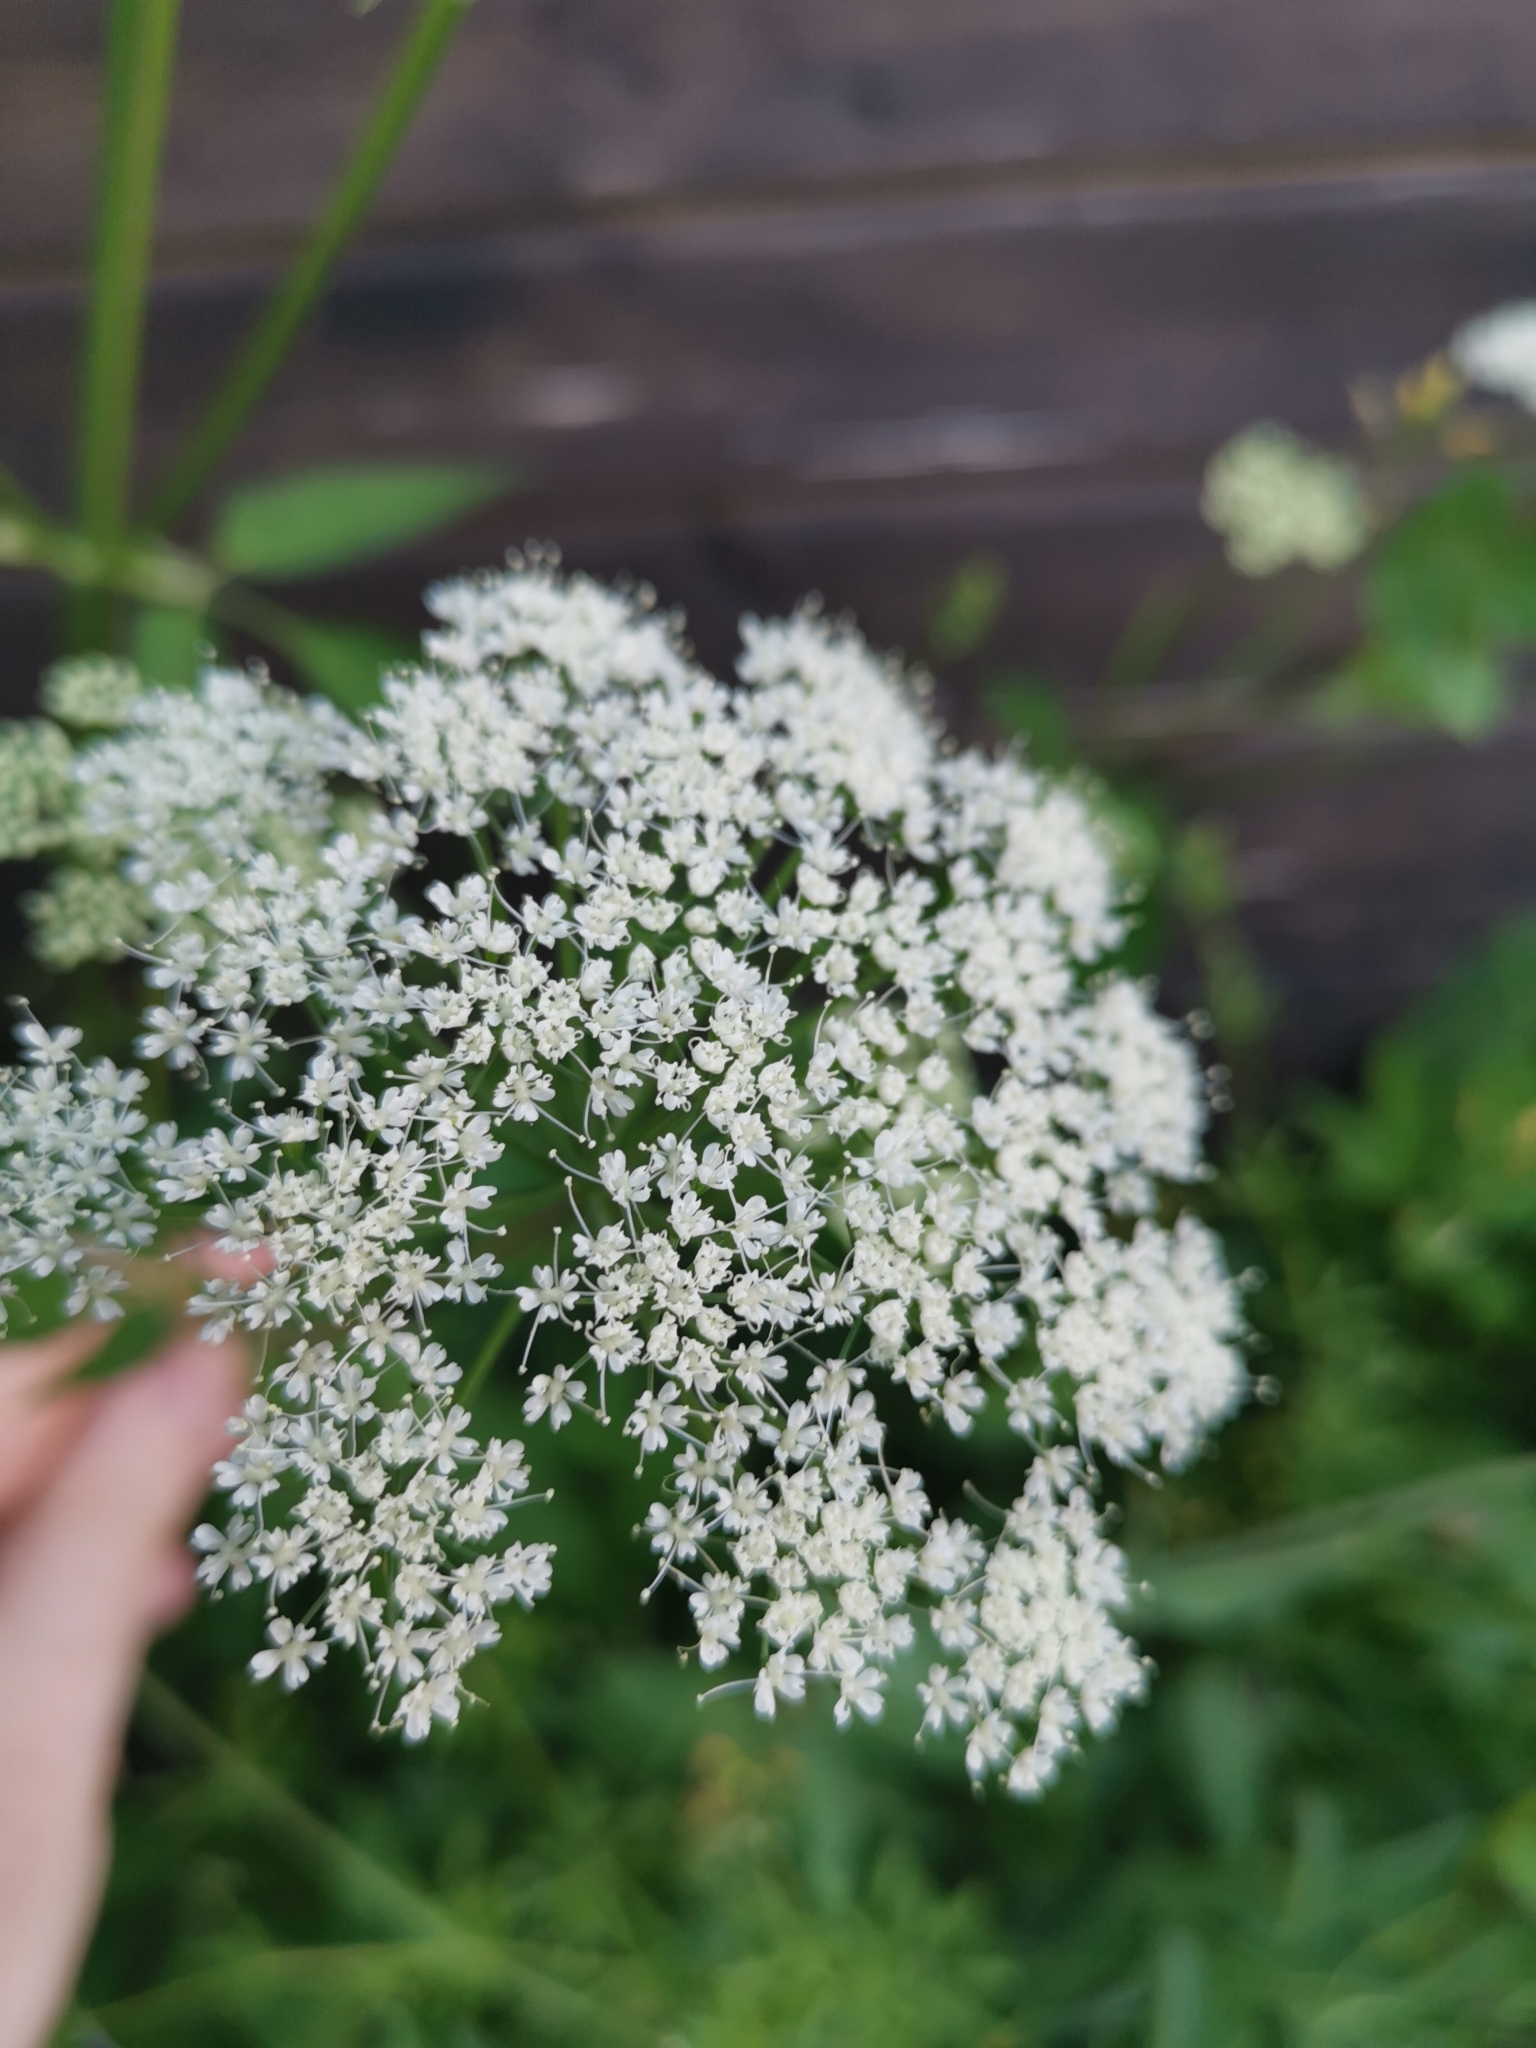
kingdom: Plantae
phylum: Tracheophyta
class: Magnoliopsida
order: Apiales
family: Apiaceae
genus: Aegopodium
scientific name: Aegopodium podagraria
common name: Ground-elder
